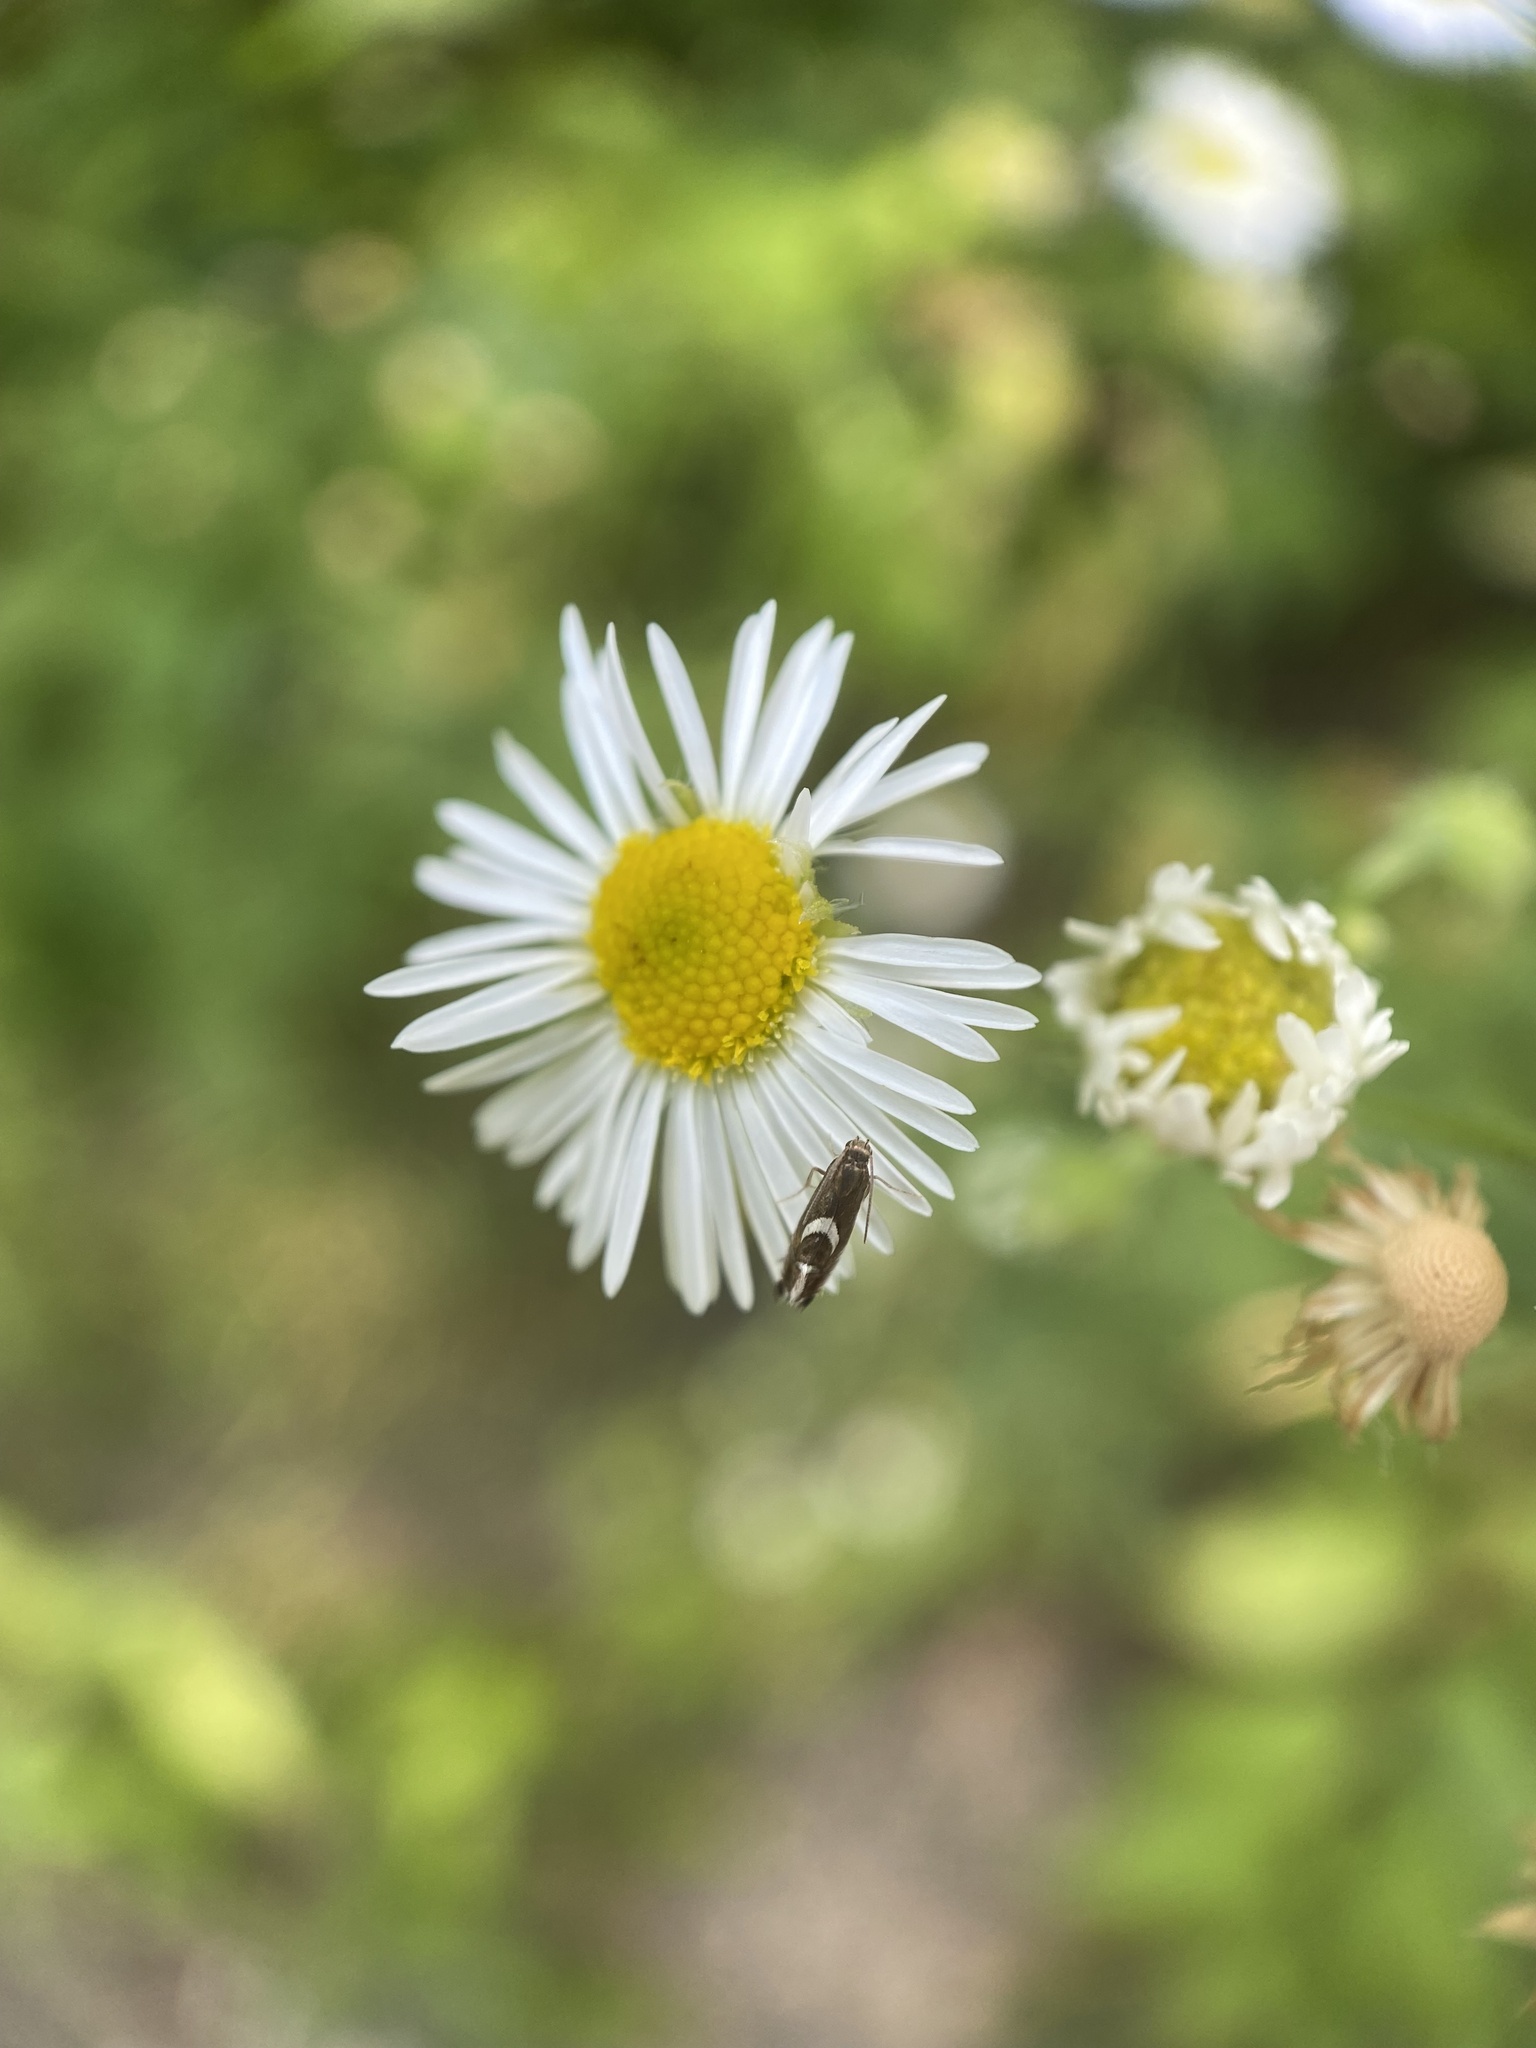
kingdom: Animalia
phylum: Arthropoda
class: Insecta
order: Lepidoptera
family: Glyphipterigidae
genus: Glyphipterix
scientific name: Glyphipterix Diploschizia impigritella
